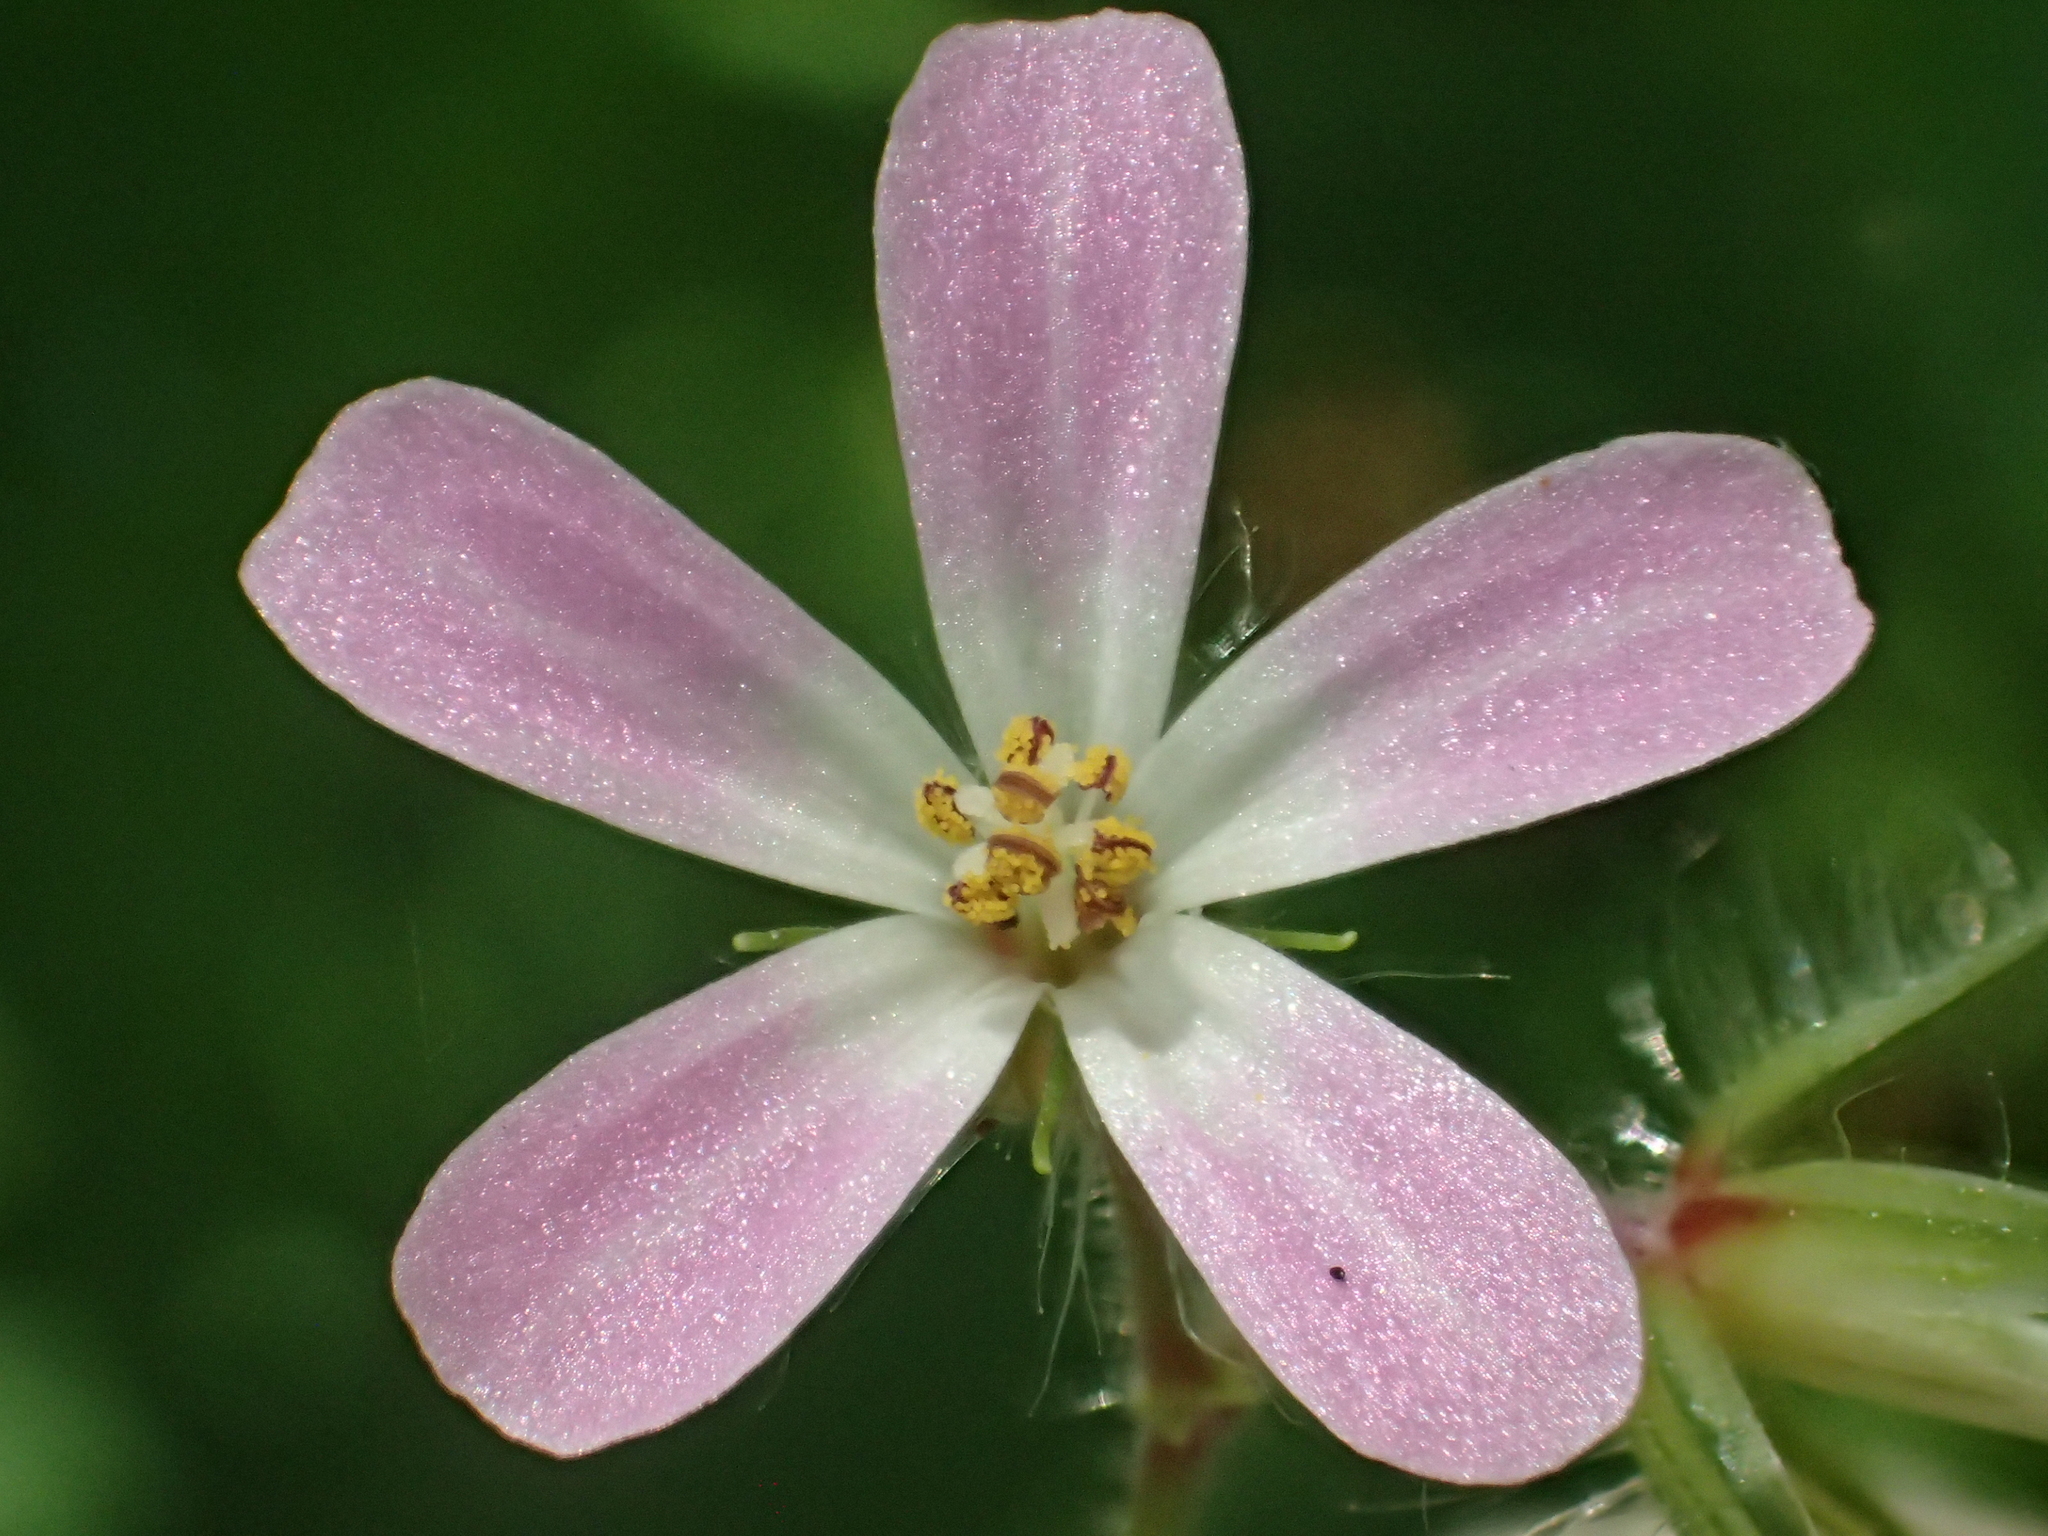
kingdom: Plantae
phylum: Tracheophyta
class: Magnoliopsida
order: Geraniales
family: Geraniaceae
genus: Geranium
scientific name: Geranium robertianum
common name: Herb-robert
